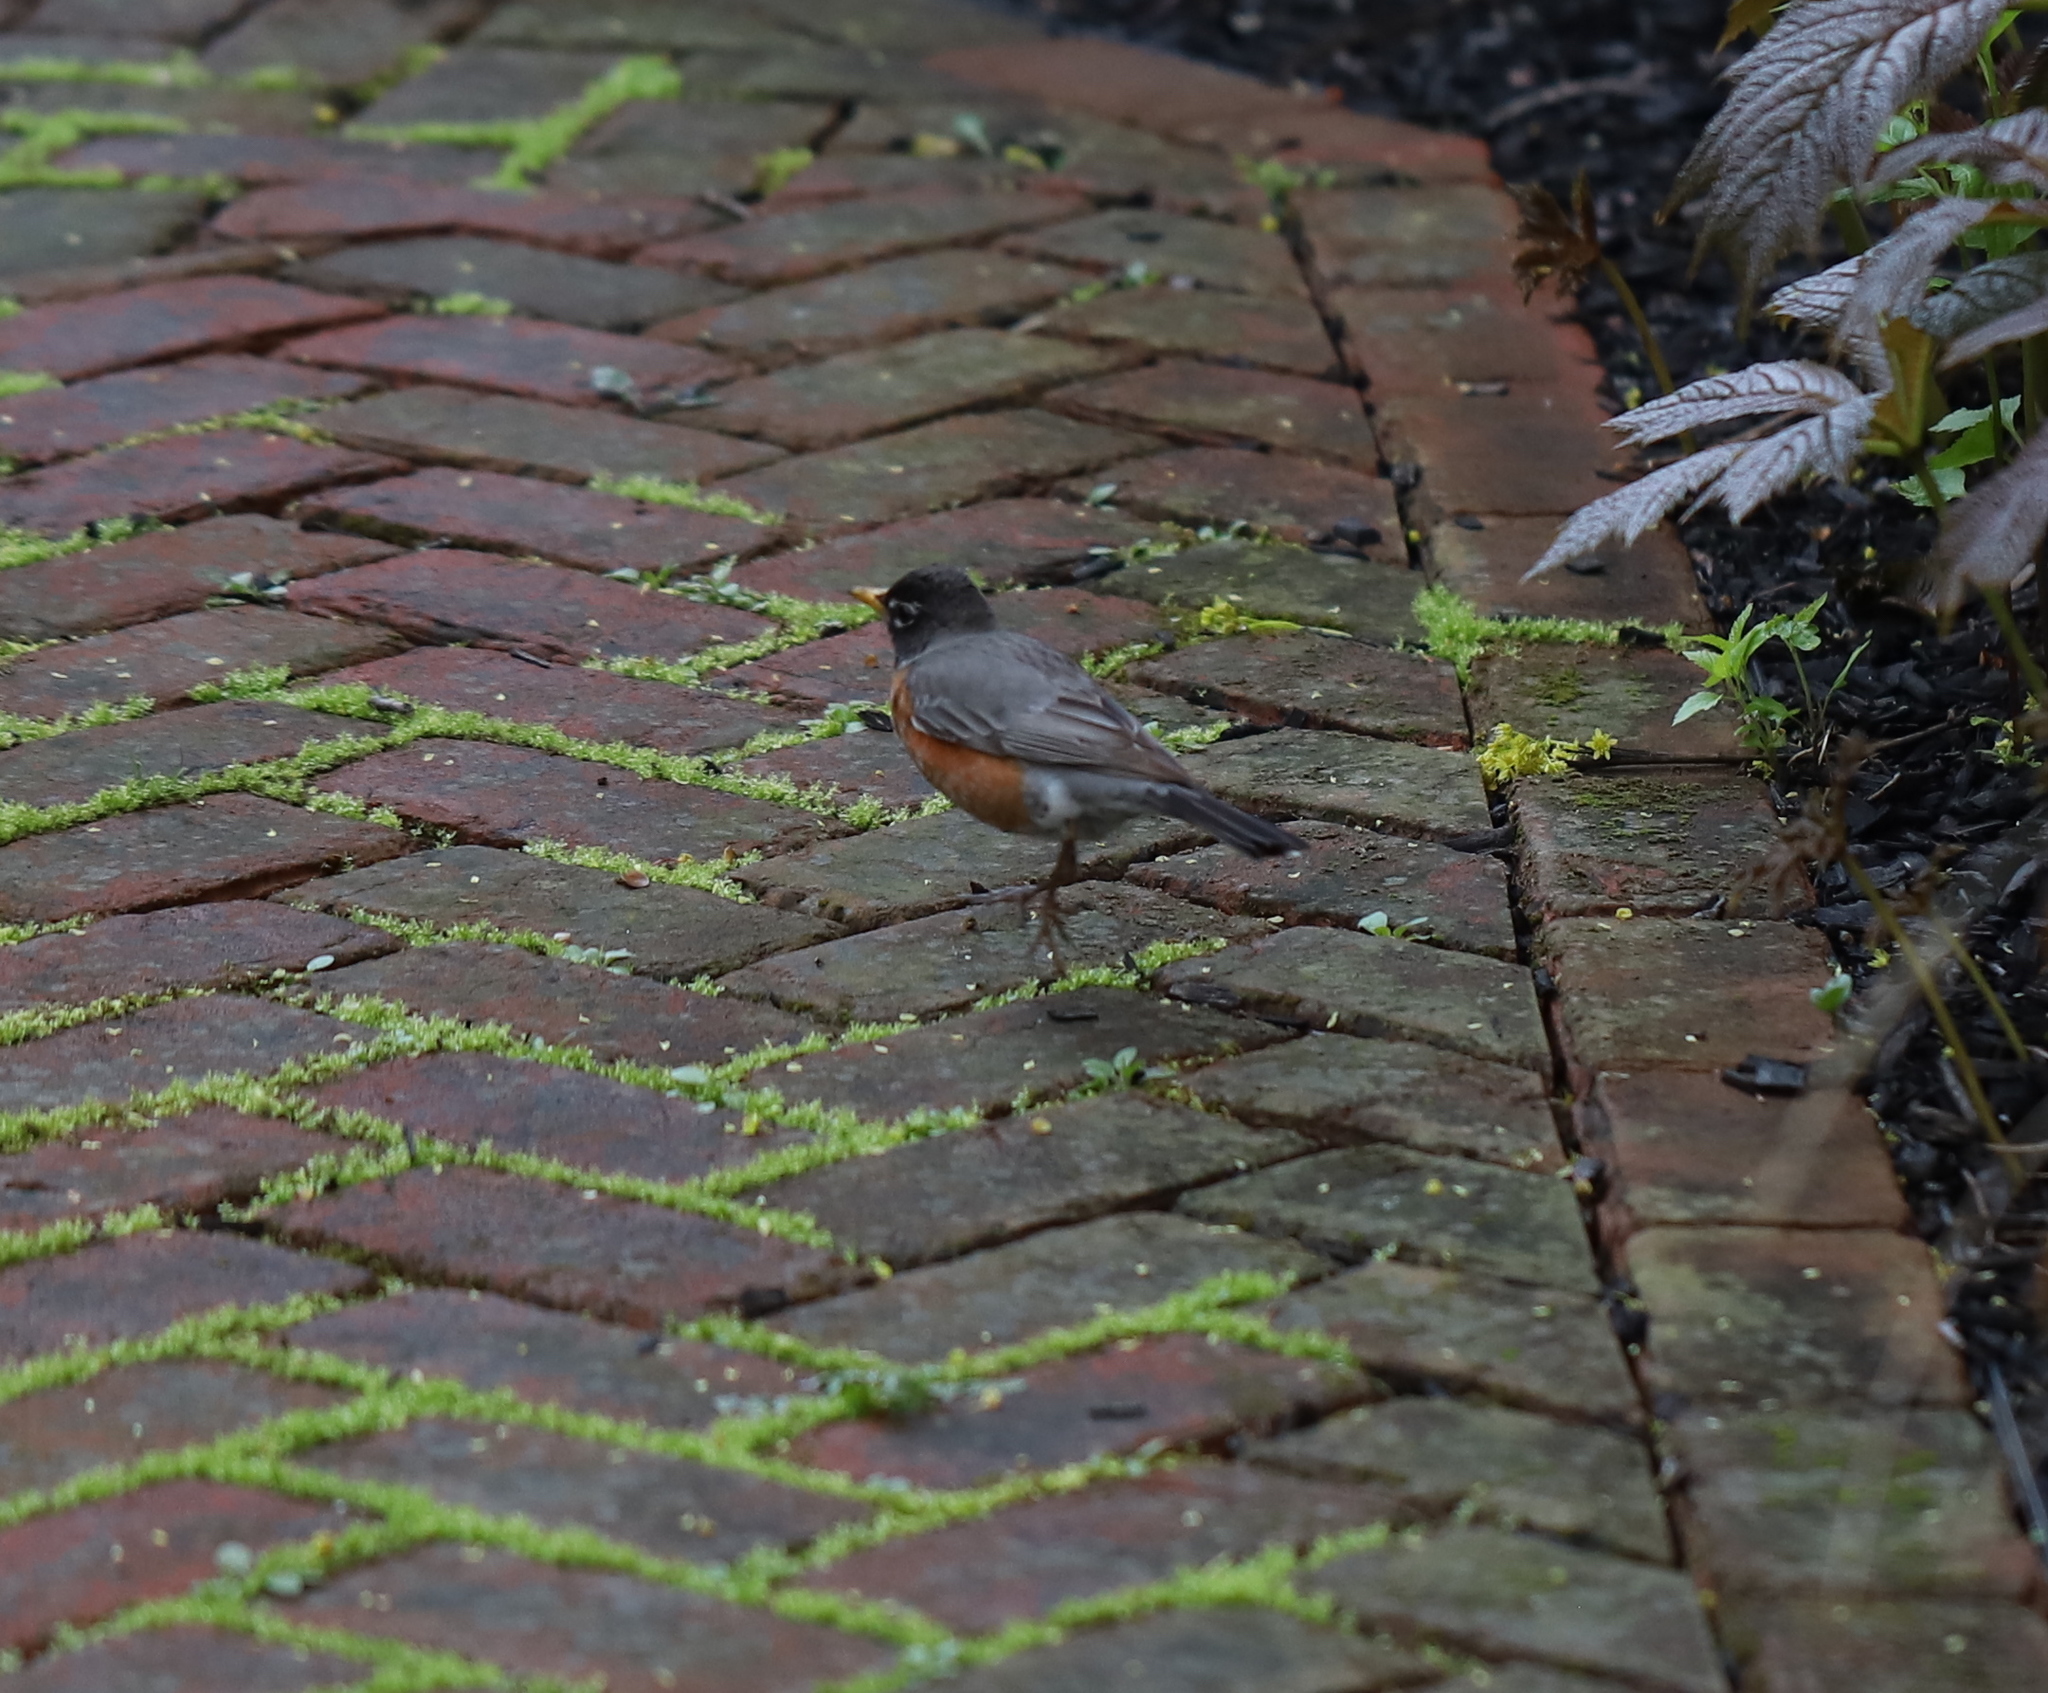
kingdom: Animalia
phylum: Chordata
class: Aves
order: Passeriformes
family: Turdidae
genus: Turdus
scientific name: Turdus migratorius
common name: American robin
